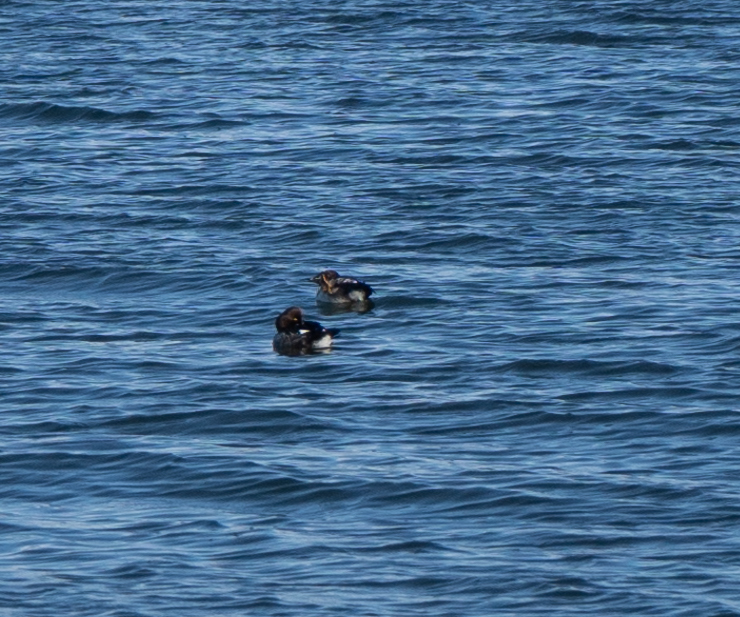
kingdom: Animalia
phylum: Chordata
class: Aves
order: Anseriformes
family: Anatidae
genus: Bucephala
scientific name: Bucephala clangula
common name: Common goldeneye
